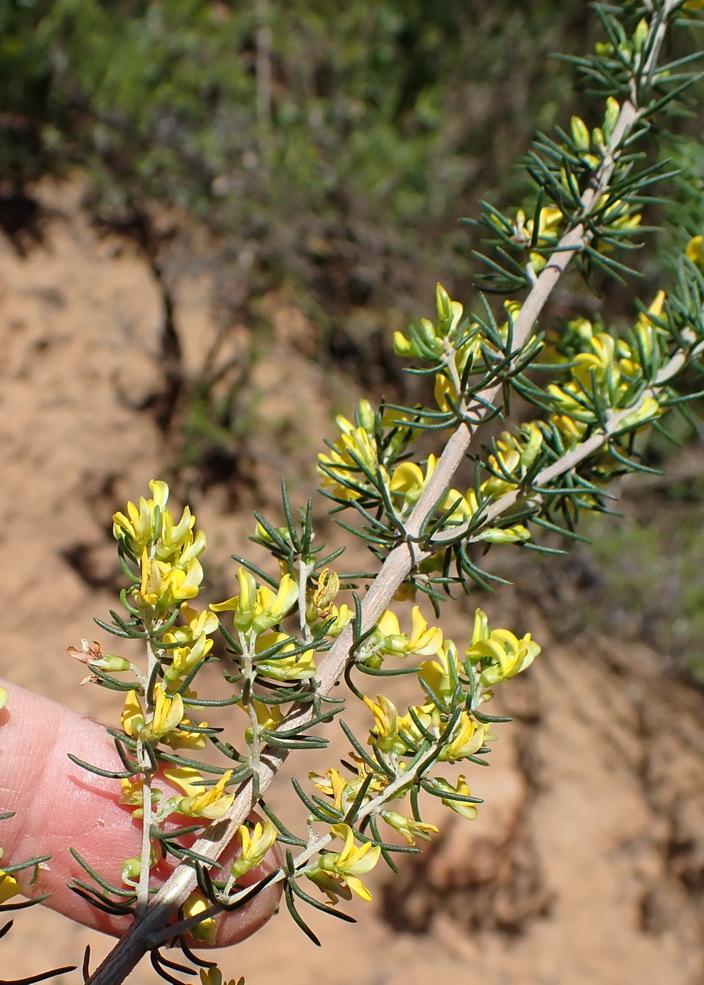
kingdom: Plantae
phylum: Tracheophyta
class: Magnoliopsida
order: Fabales
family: Fabaceae
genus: Aspalathus
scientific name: Aspalathus subtingens
